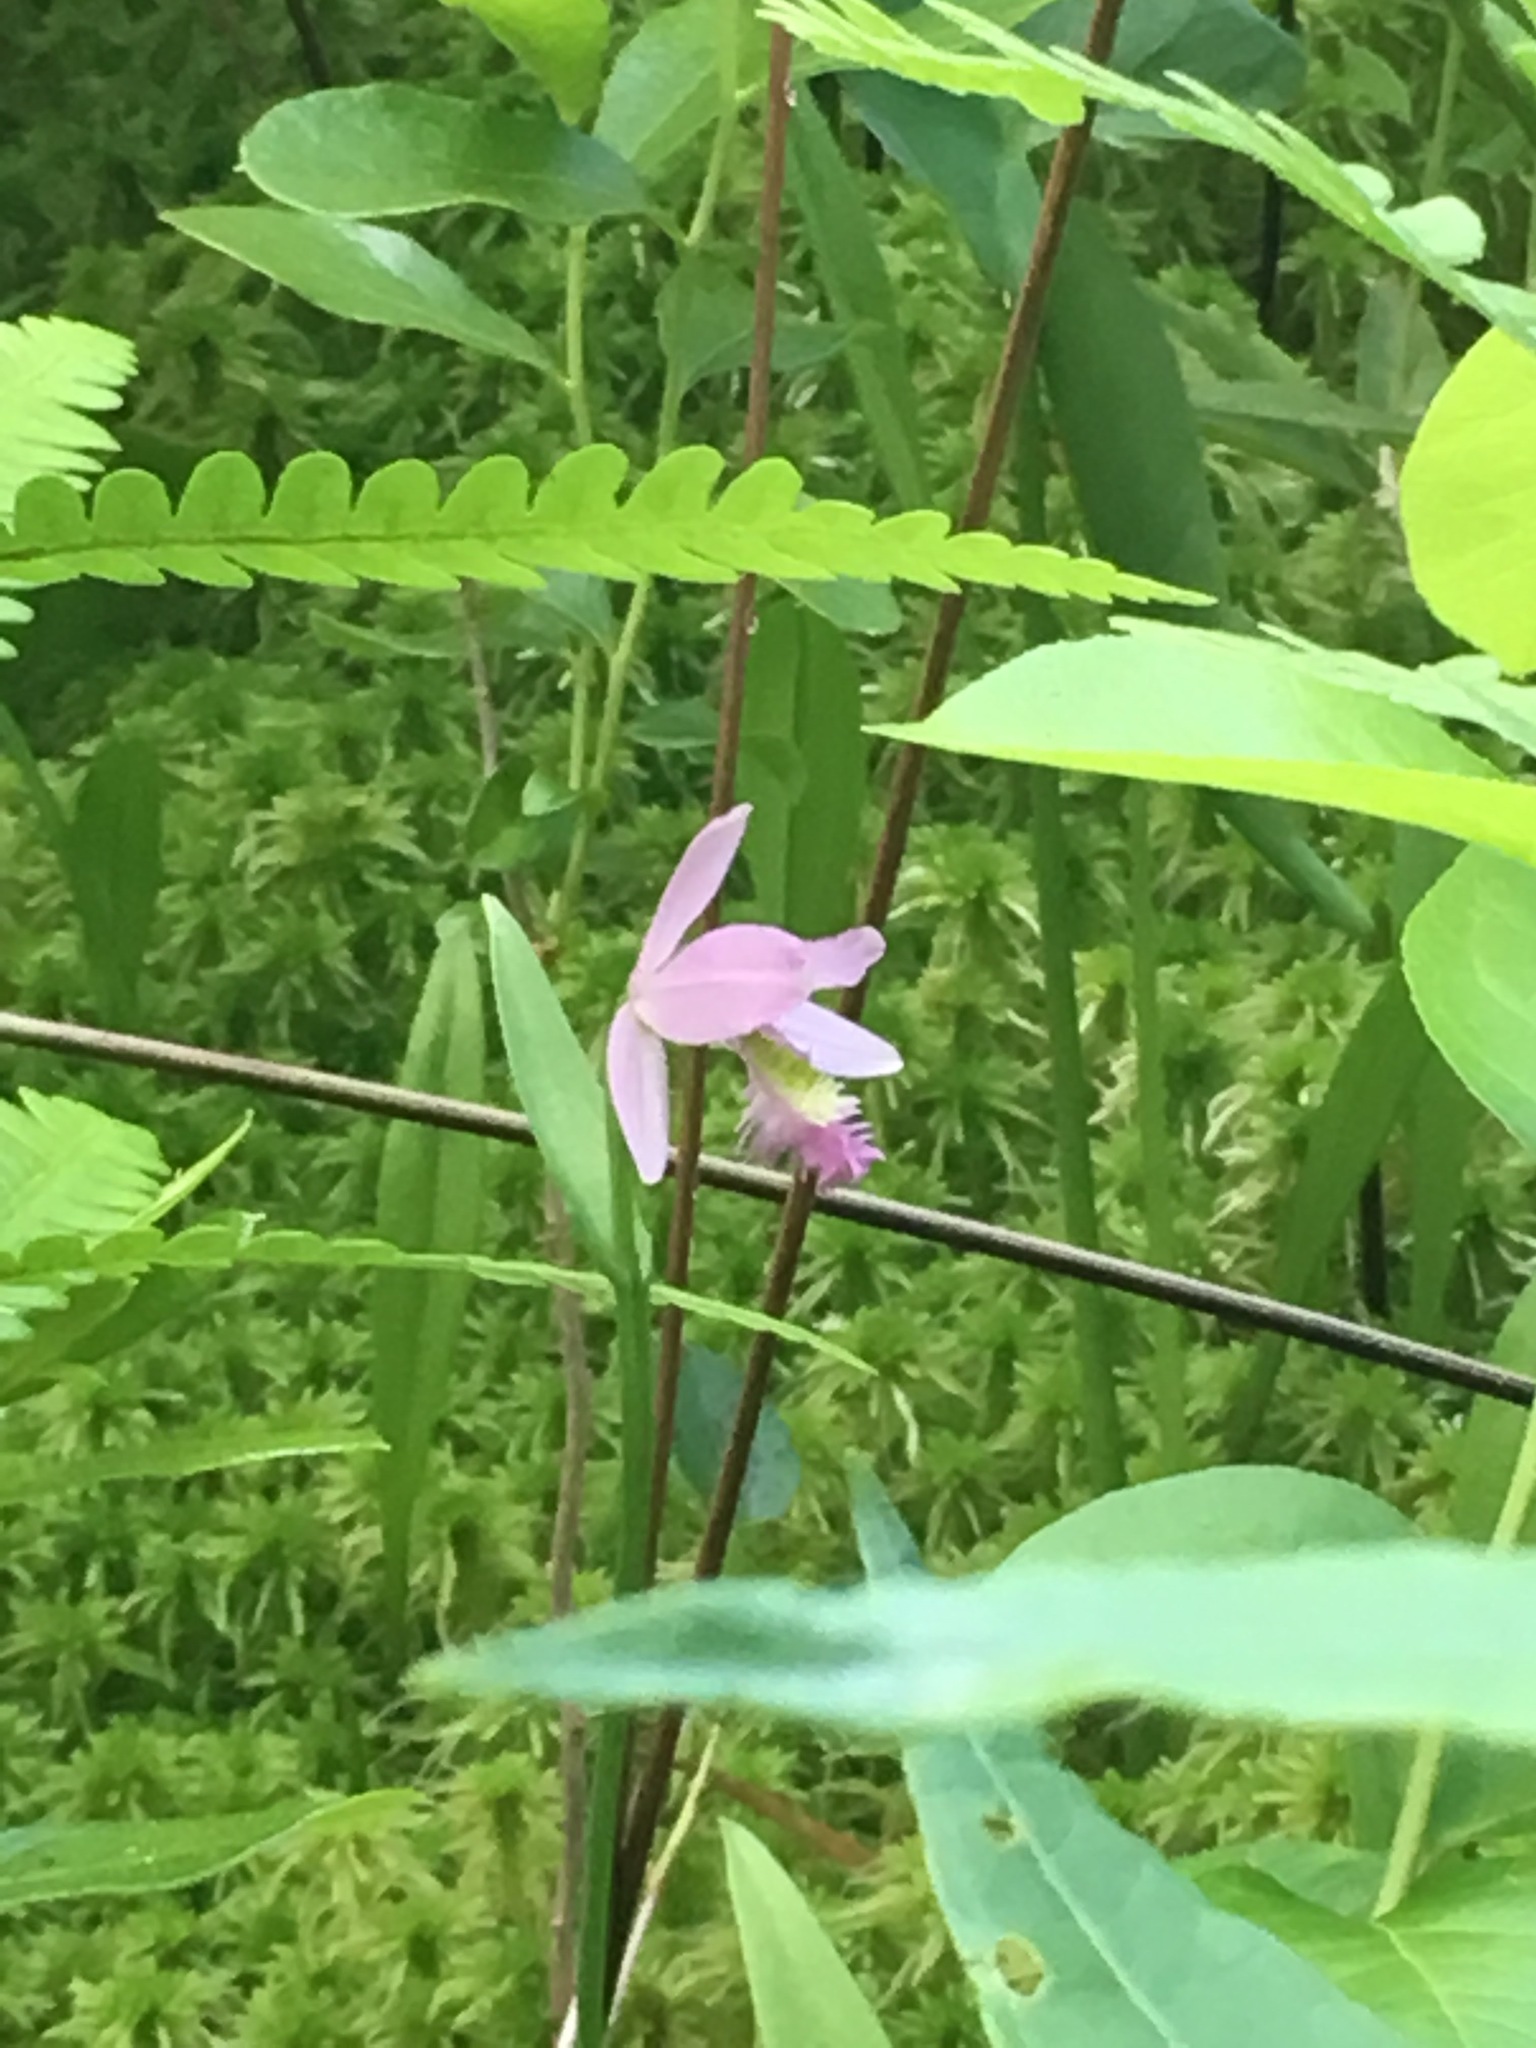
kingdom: Plantae
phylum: Tracheophyta
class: Liliopsida
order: Asparagales
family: Orchidaceae
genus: Pogonia
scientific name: Pogonia ophioglossoides
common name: Rose pogonia
